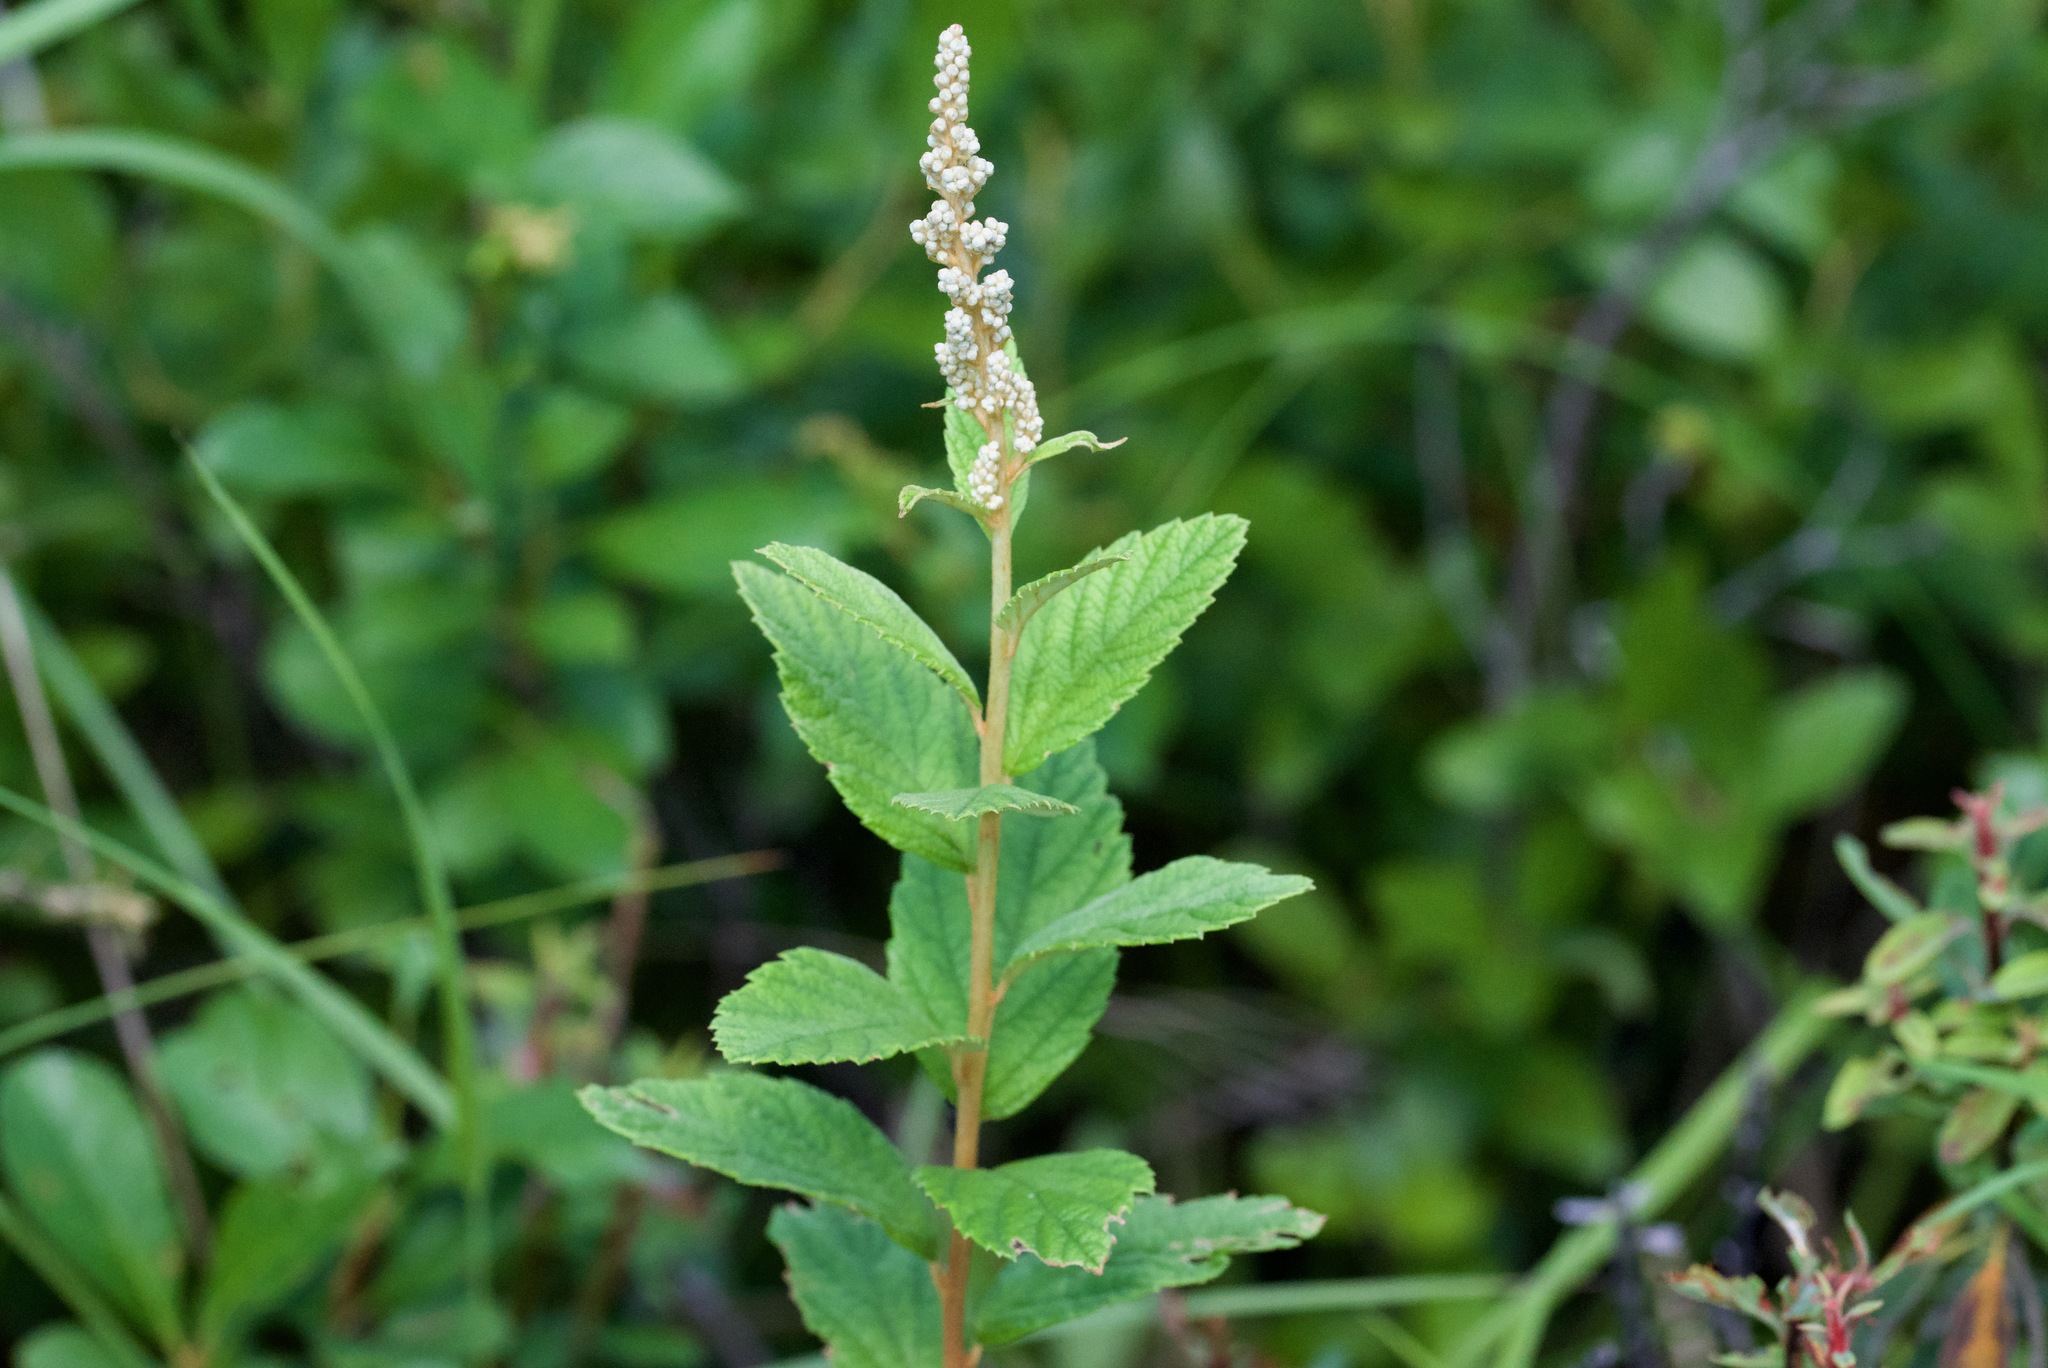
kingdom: Plantae
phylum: Tracheophyta
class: Magnoliopsida
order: Rosales
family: Rosaceae
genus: Spiraea
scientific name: Spiraea tomentosa
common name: Hardhack
